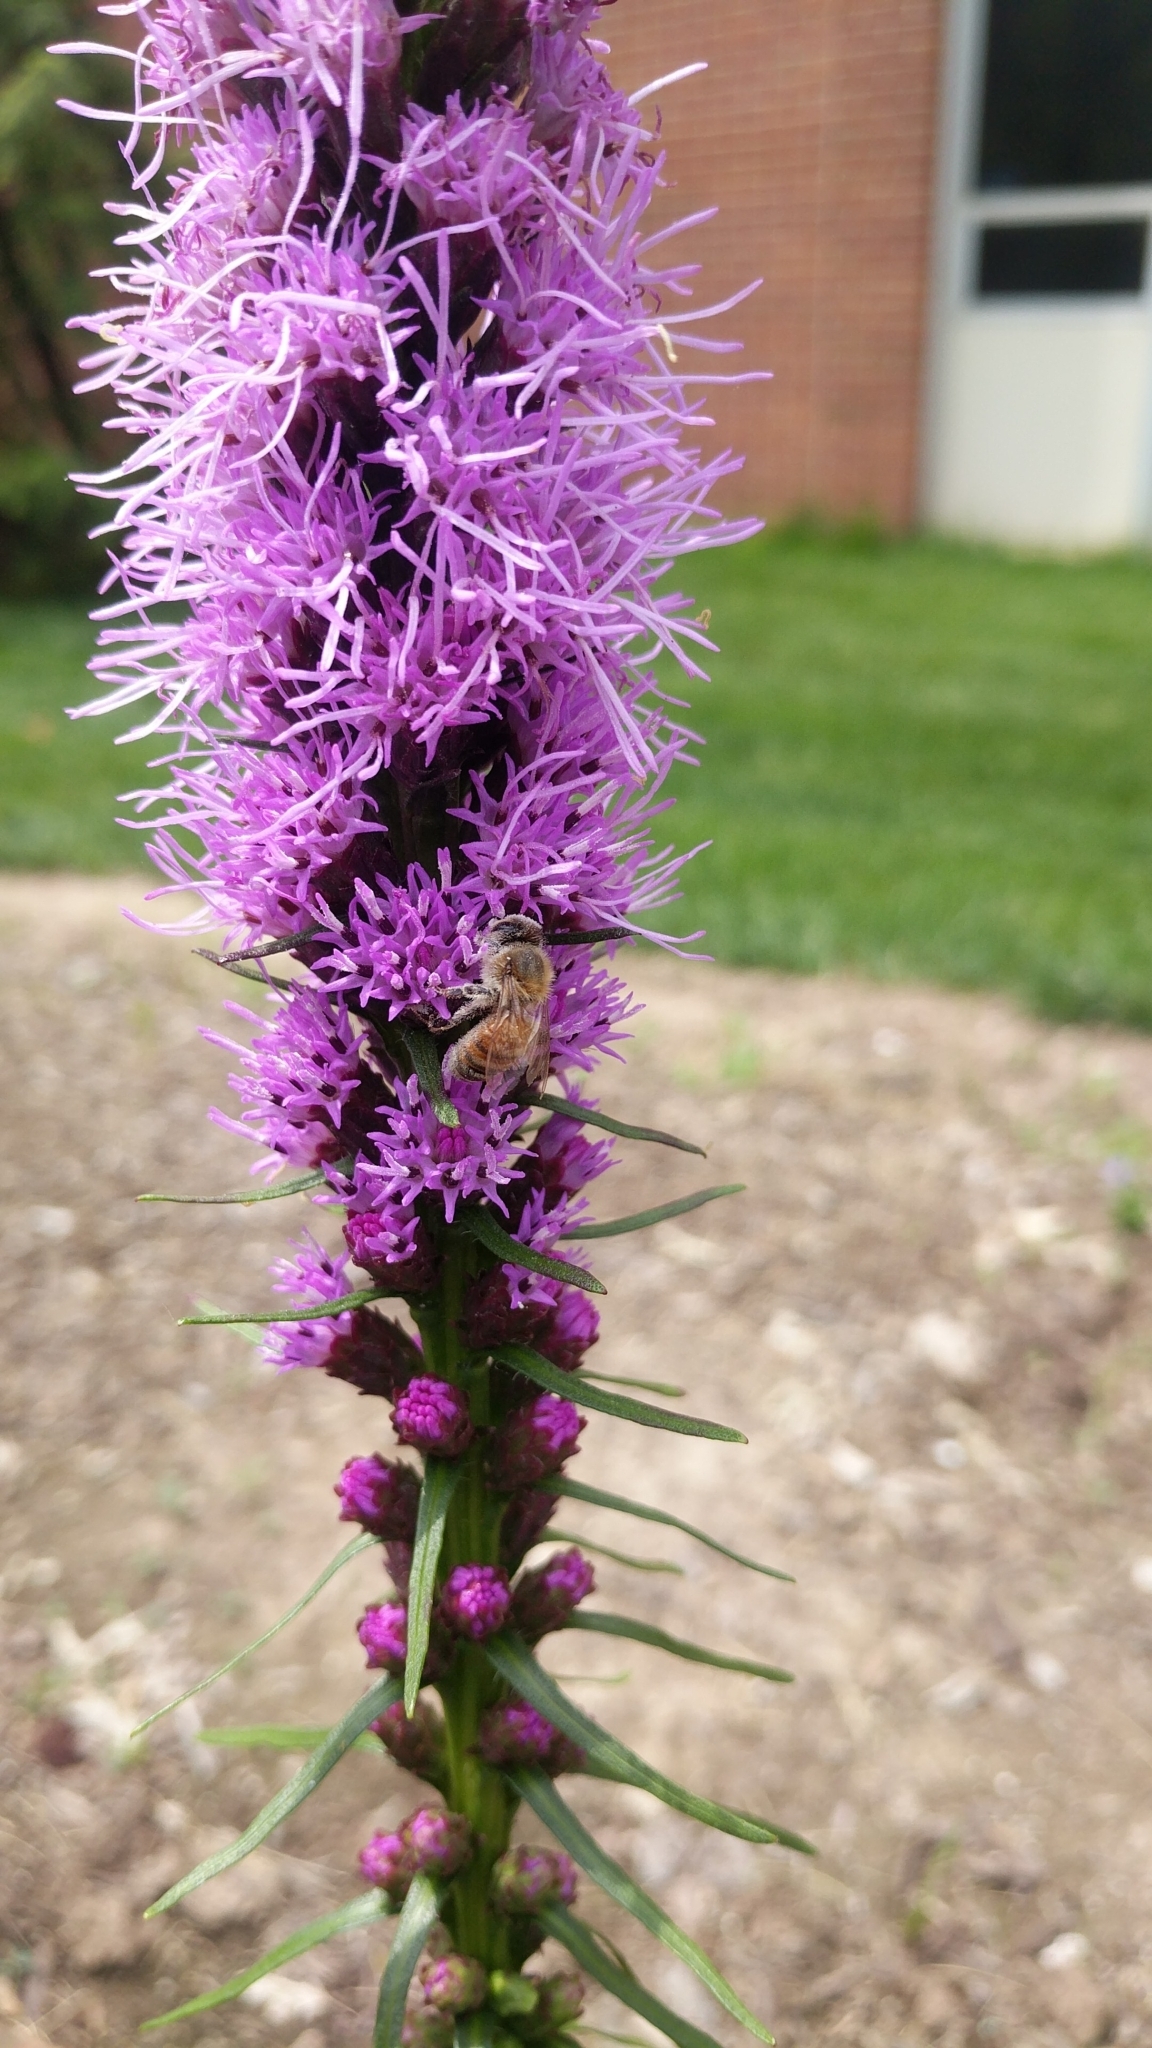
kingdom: Animalia
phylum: Arthropoda
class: Insecta
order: Hymenoptera
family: Apidae
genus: Apis
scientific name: Apis mellifera
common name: Honey bee
